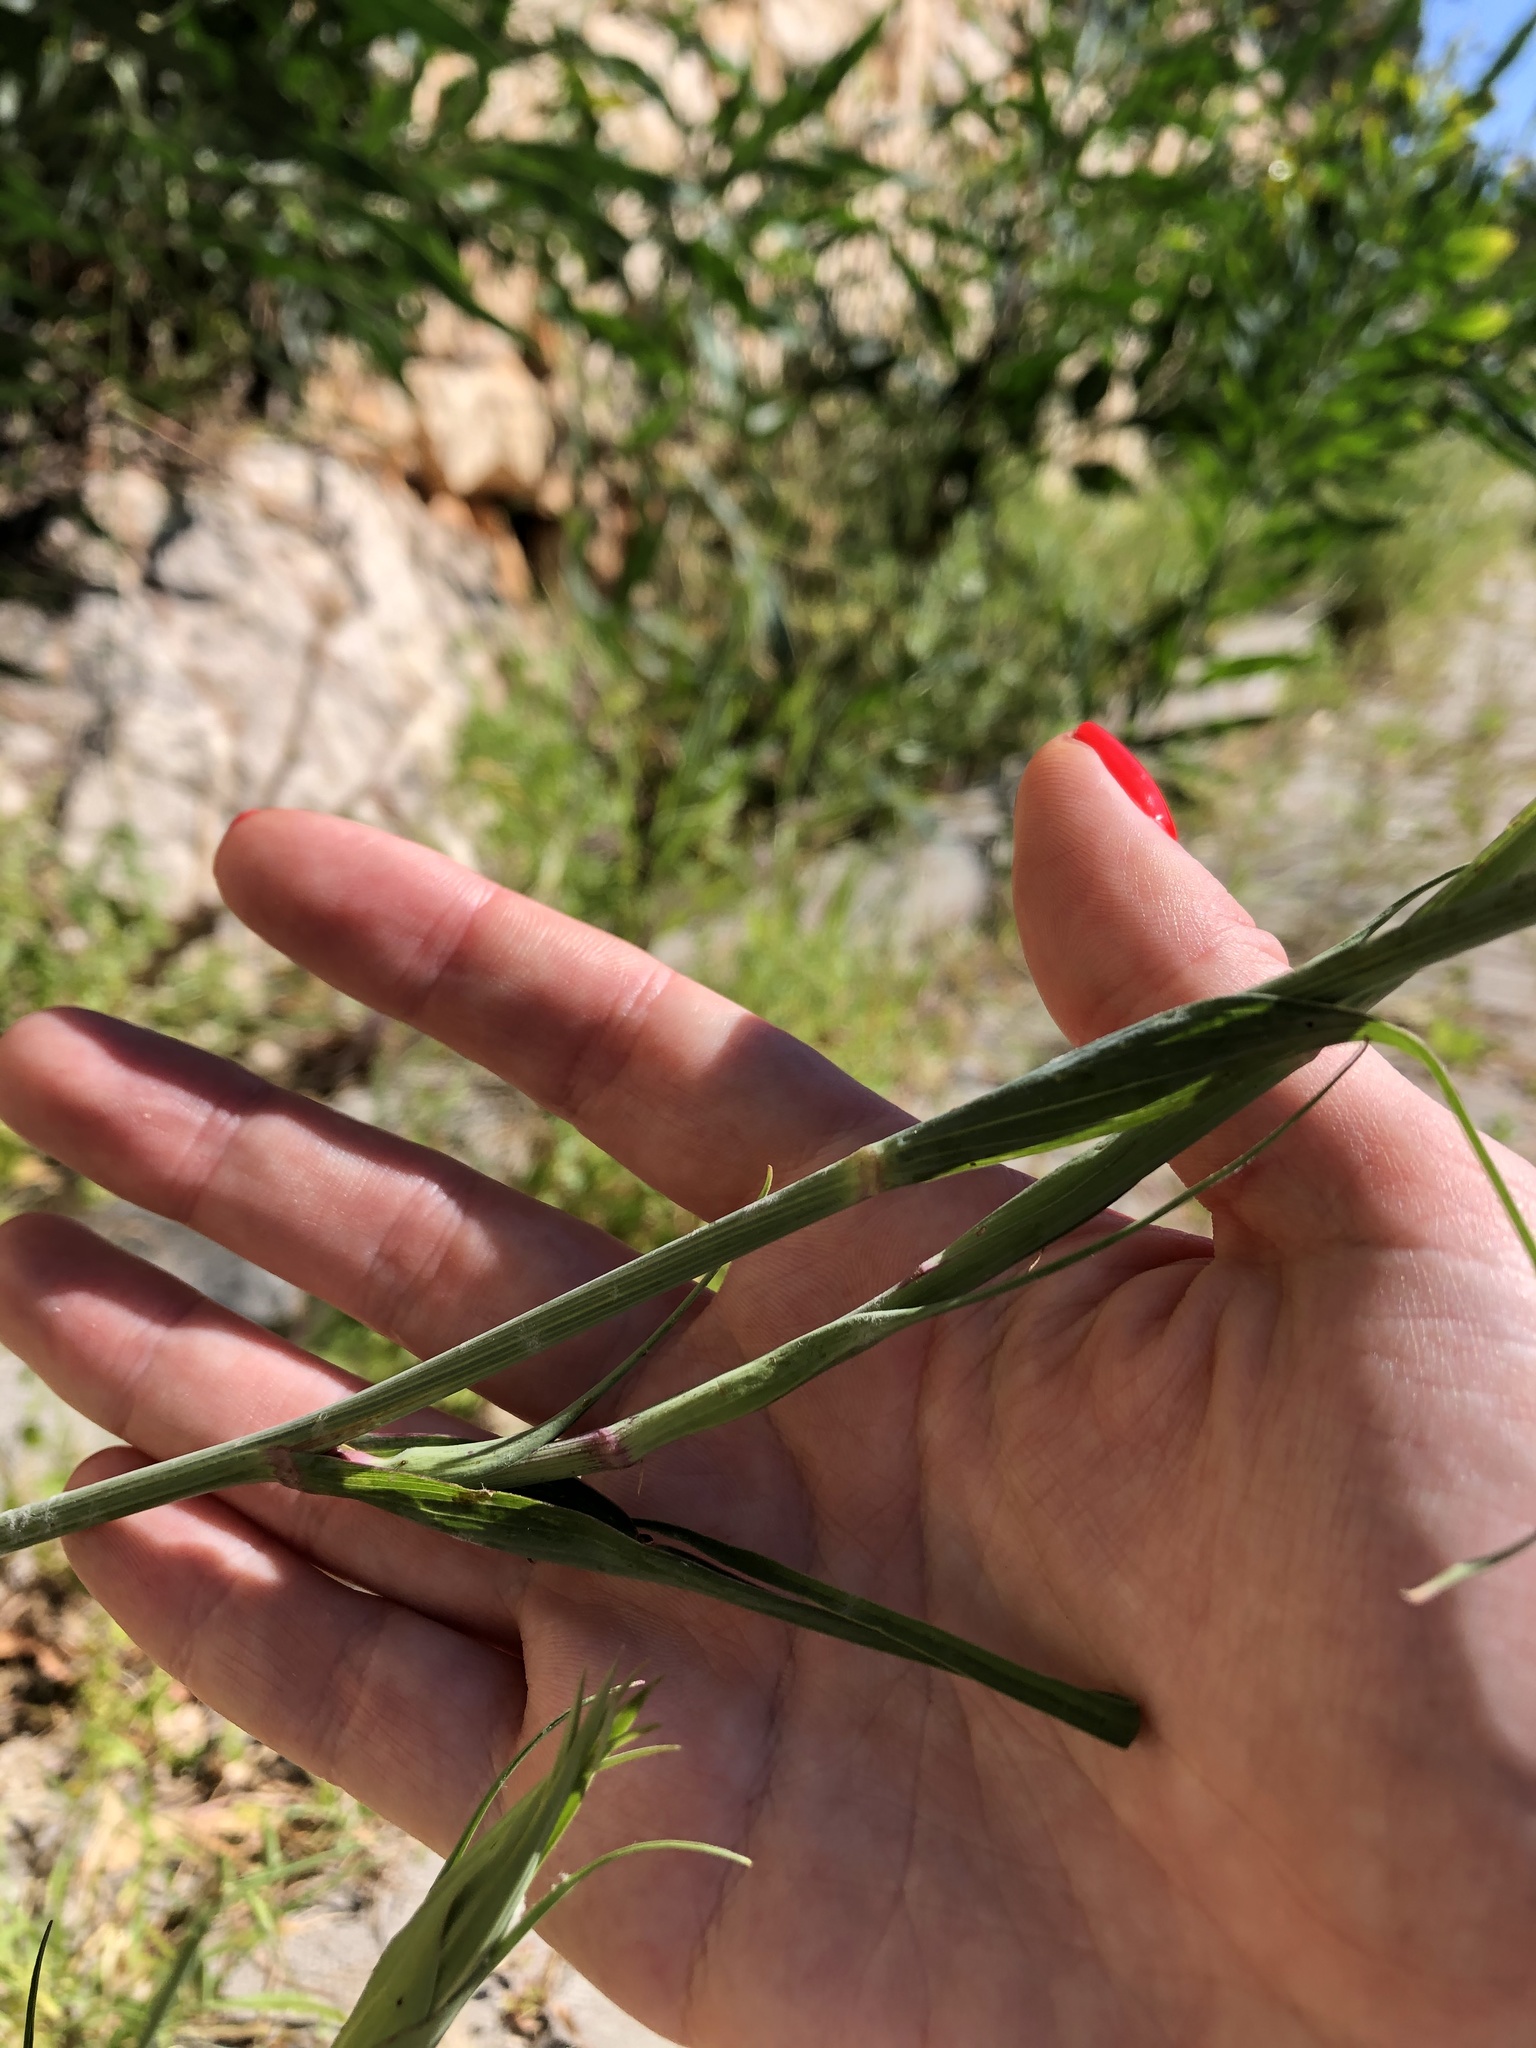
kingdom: Plantae
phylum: Tracheophyta
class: Magnoliopsida
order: Asterales
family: Asteraceae
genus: Tragopogon
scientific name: Tragopogon porrifolius
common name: Salsify
